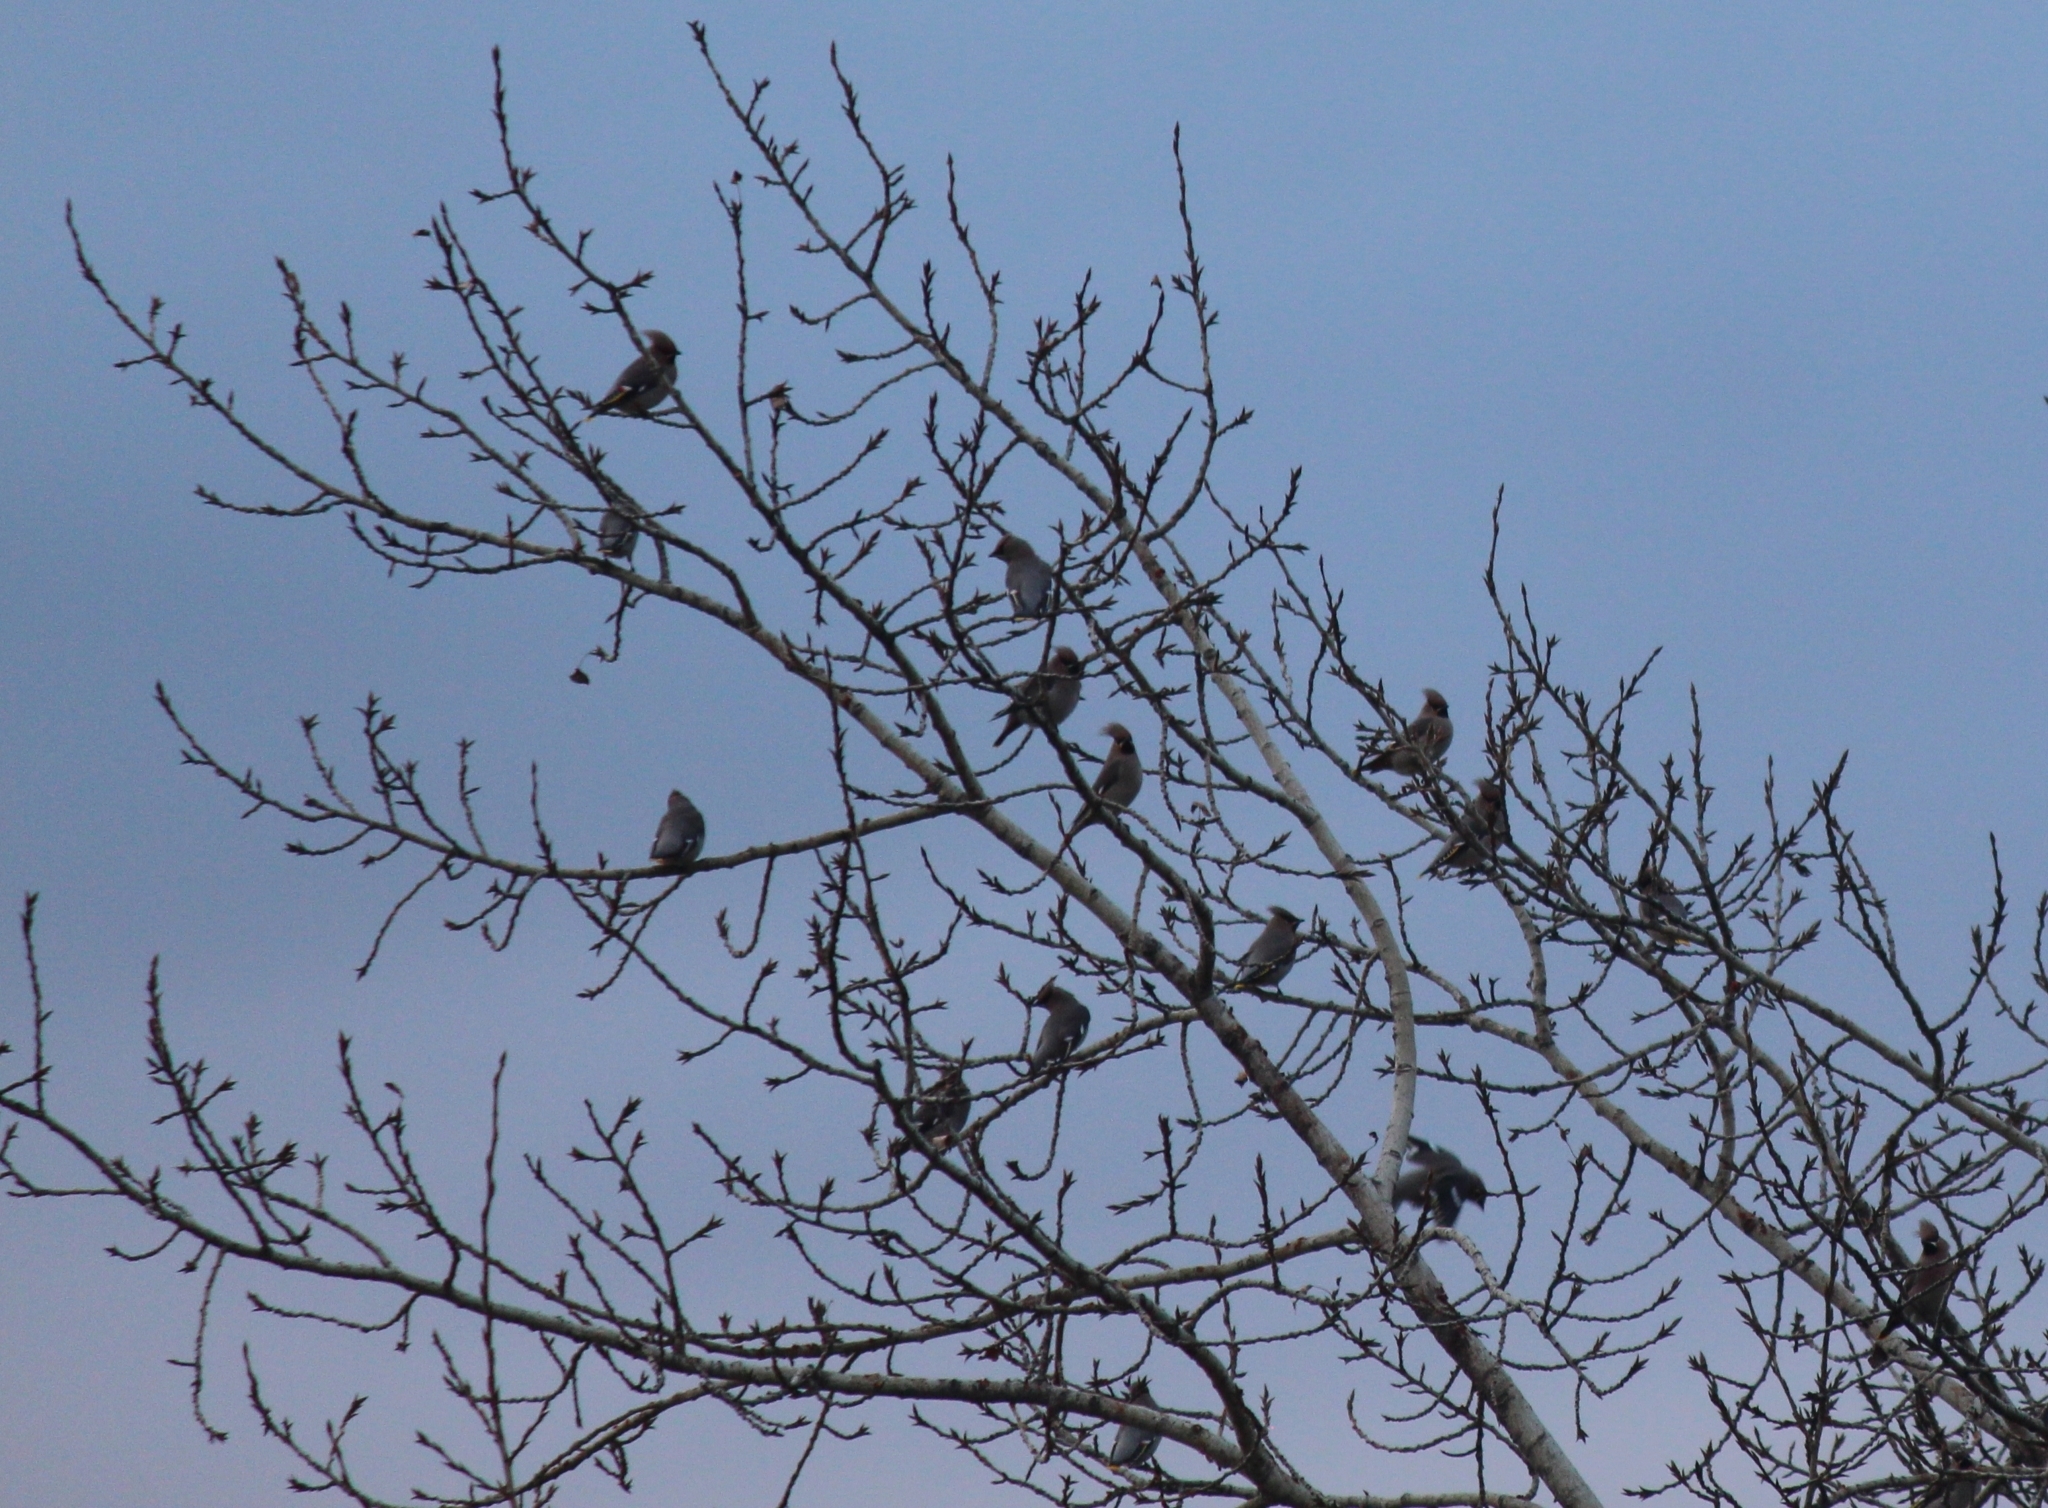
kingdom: Animalia
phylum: Chordata
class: Aves
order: Passeriformes
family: Bombycillidae
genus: Bombycilla
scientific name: Bombycilla garrulus
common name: Bohemian waxwing
